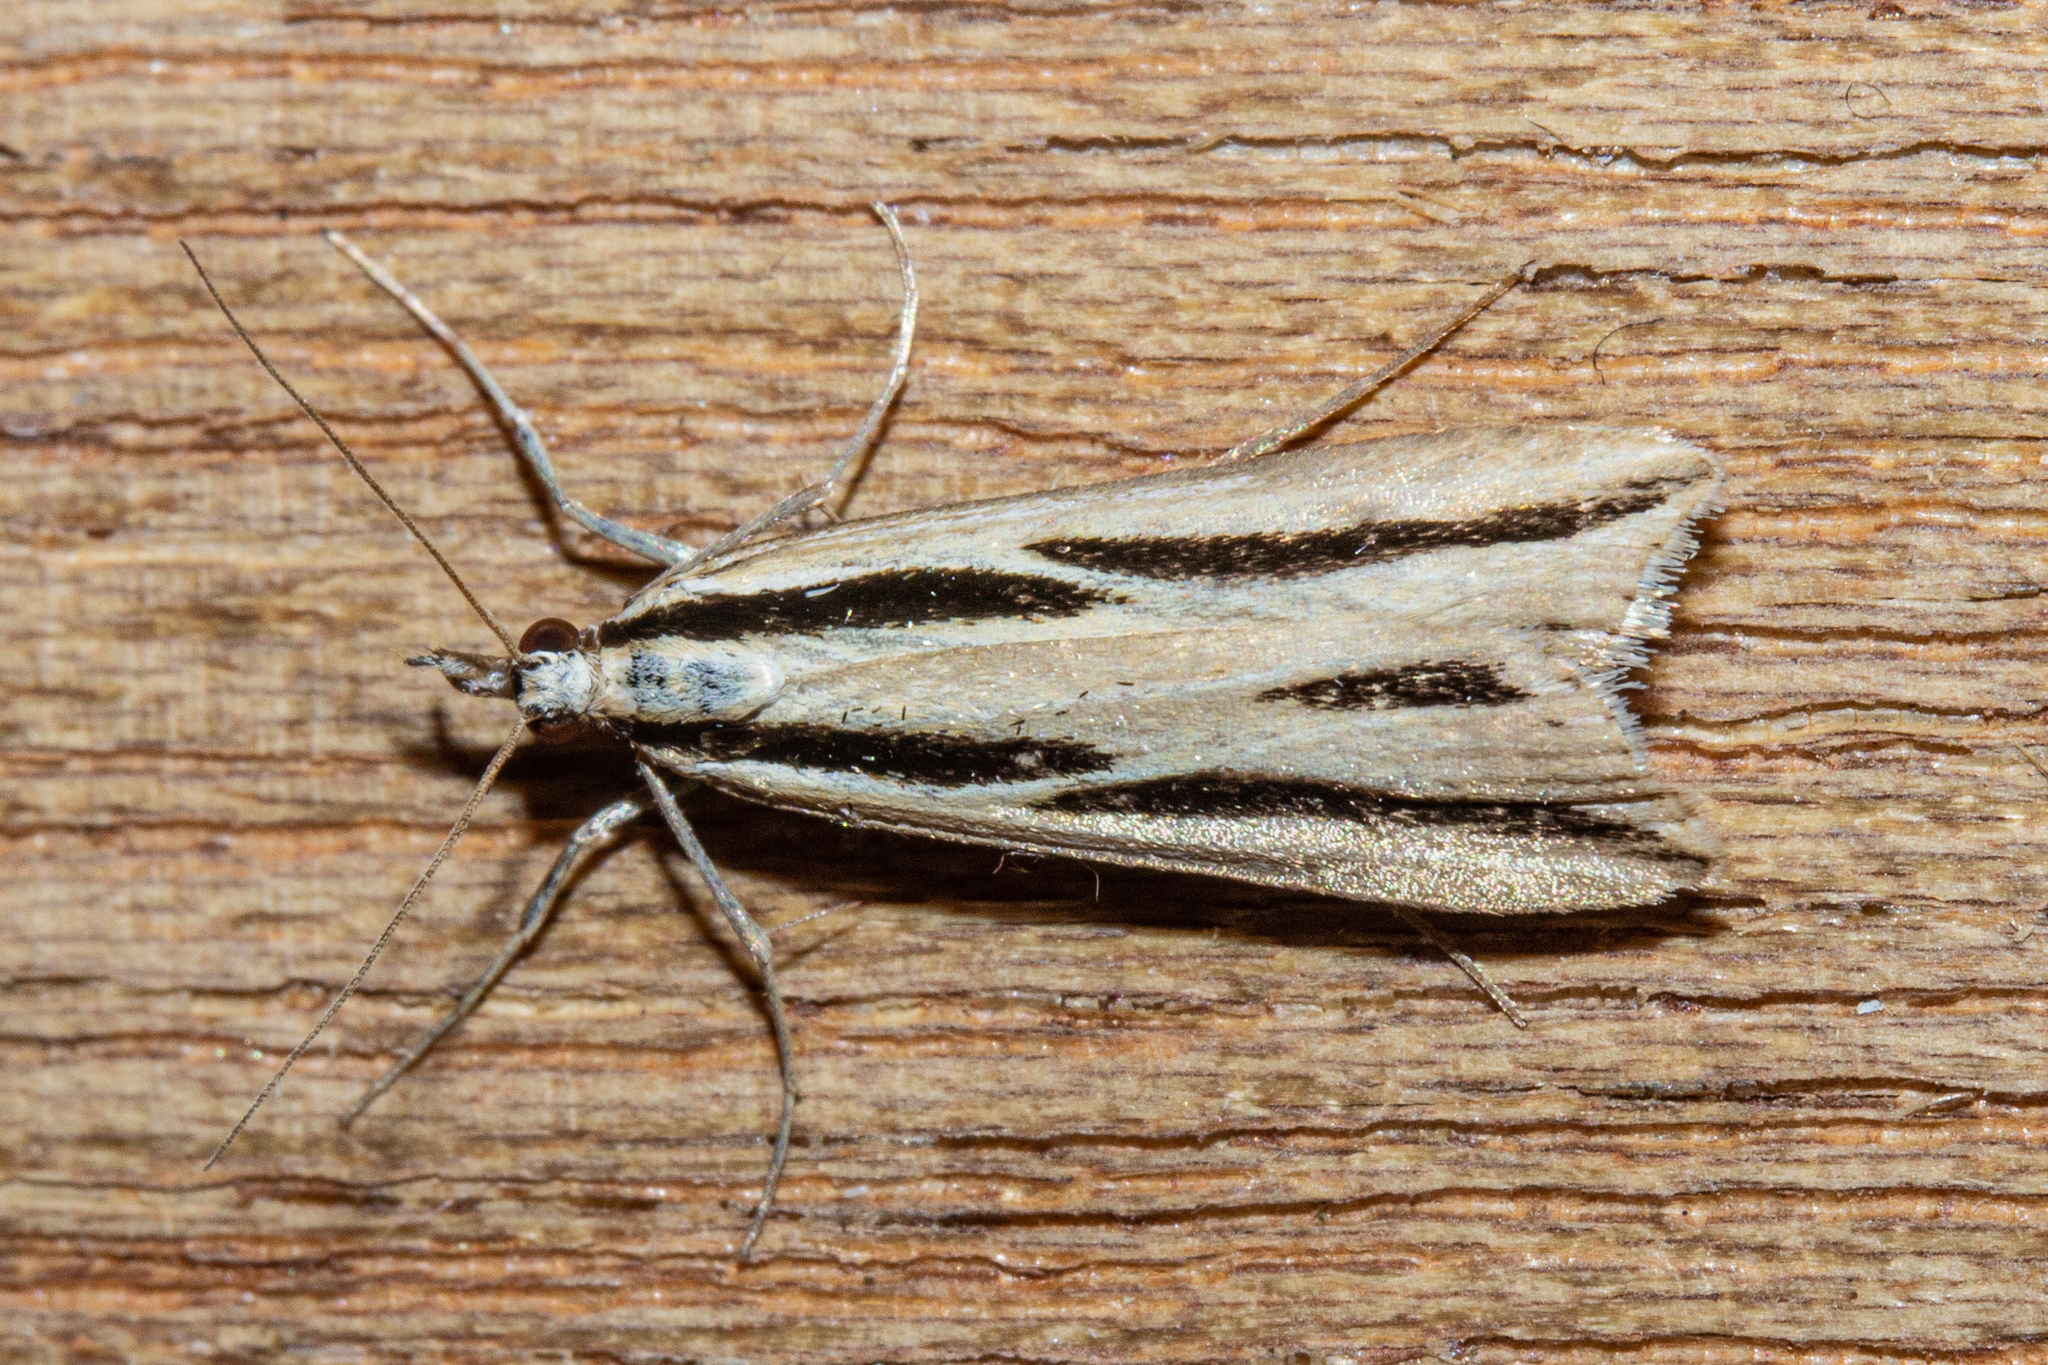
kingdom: Animalia
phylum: Arthropoda
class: Insecta
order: Lepidoptera
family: Crambidae
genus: Eudonia
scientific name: Eudonia trivirgata
